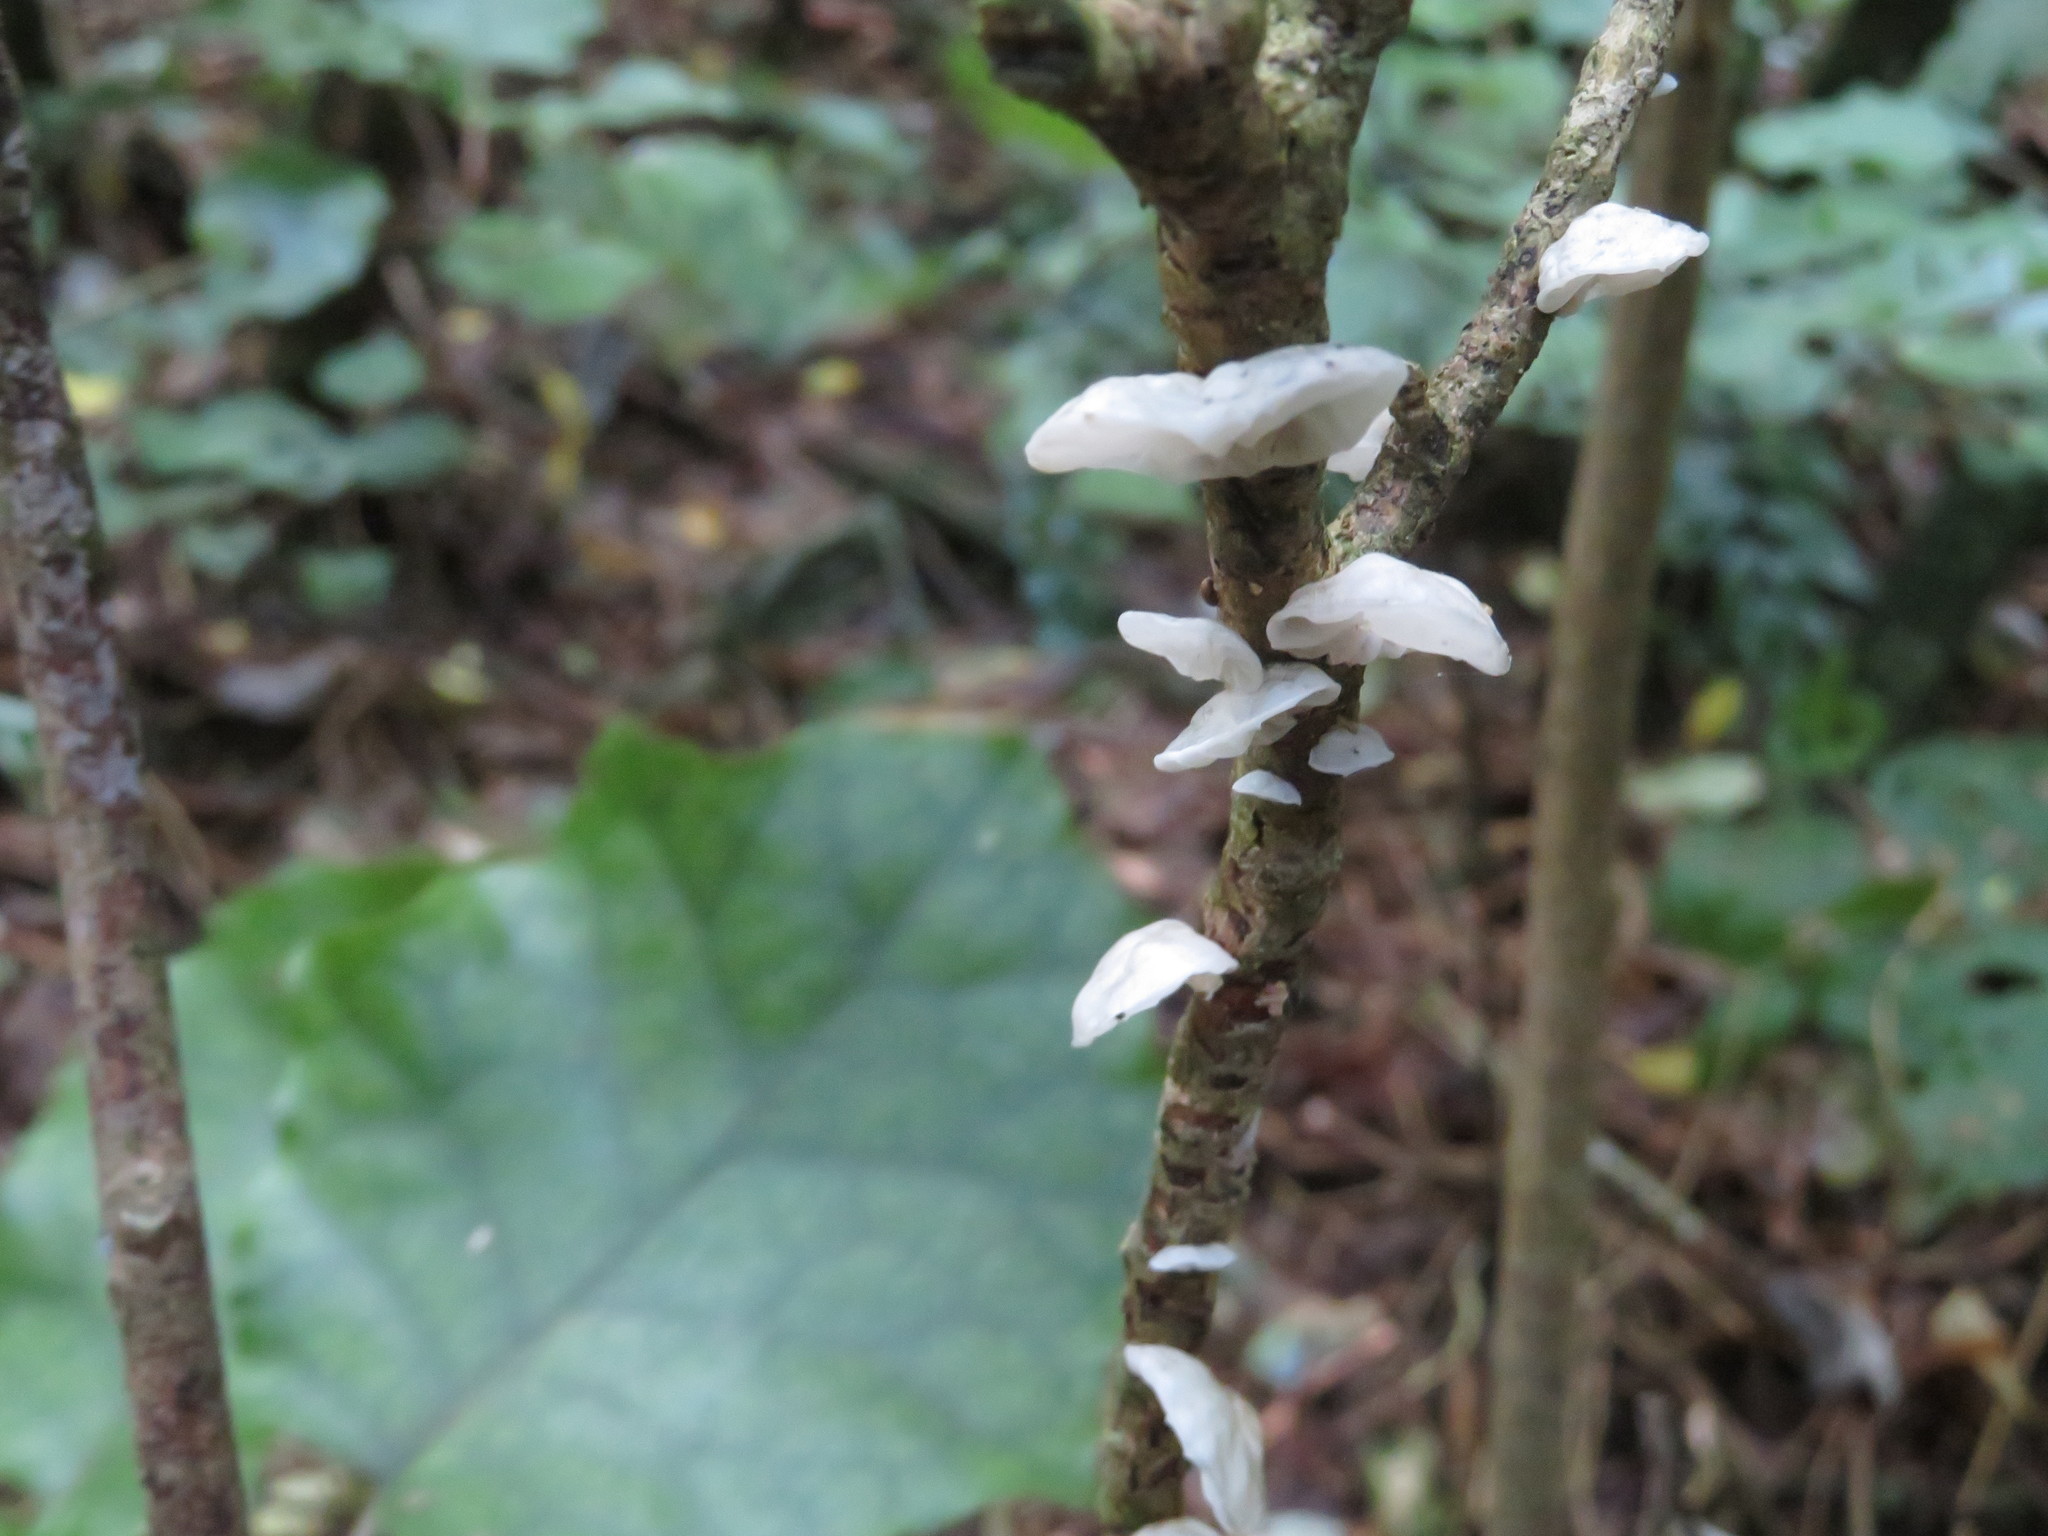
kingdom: Fungi
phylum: Basidiomycota
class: Agaricomycetes
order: Agaricales
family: Marasmiaceae
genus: Campanella
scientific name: Campanella tristis
